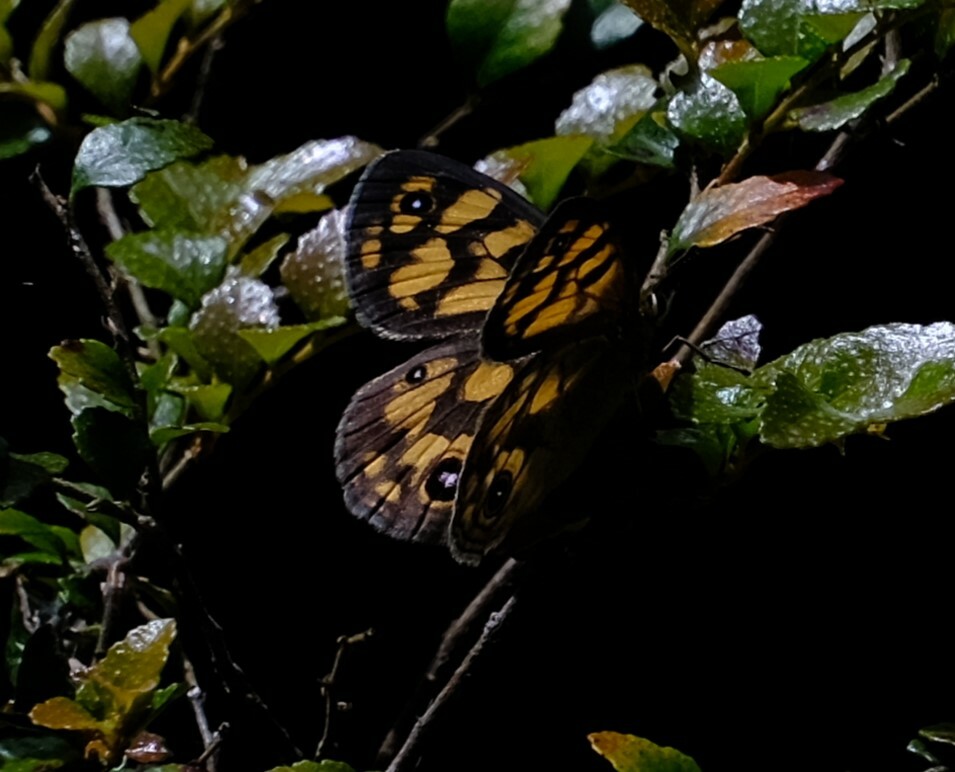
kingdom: Animalia
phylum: Arthropoda
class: Insecta
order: Lepidoptera
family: Nymphalidae
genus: Heteronympha
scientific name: Heteronympha cordace
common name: Bright-eyed brown
